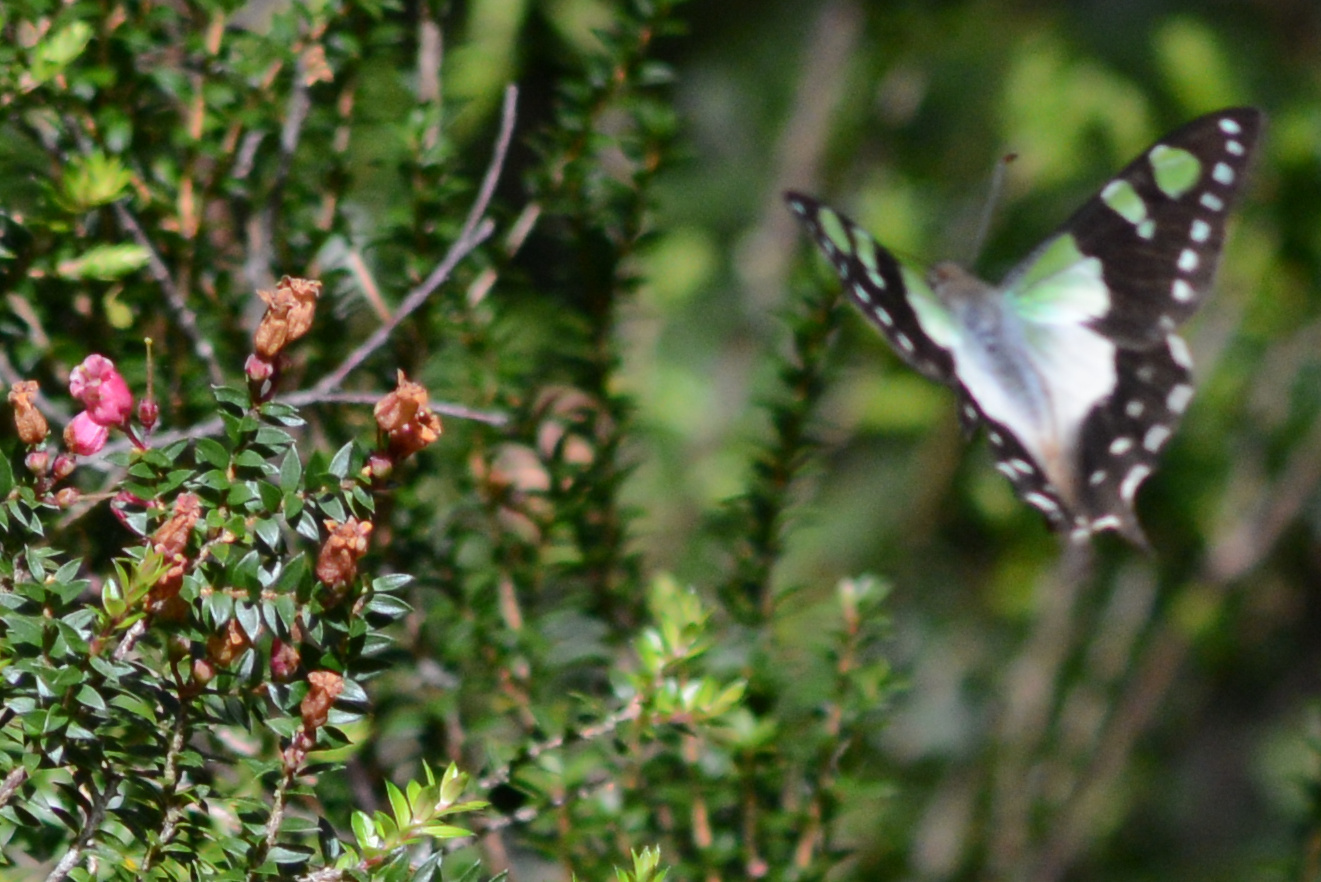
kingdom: Animalia
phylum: Arthropoda
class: Insecta
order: Lepidoptera
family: Papilionidae
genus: Graphium
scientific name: Graphium macleayanus
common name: Macleay's swallowtail
